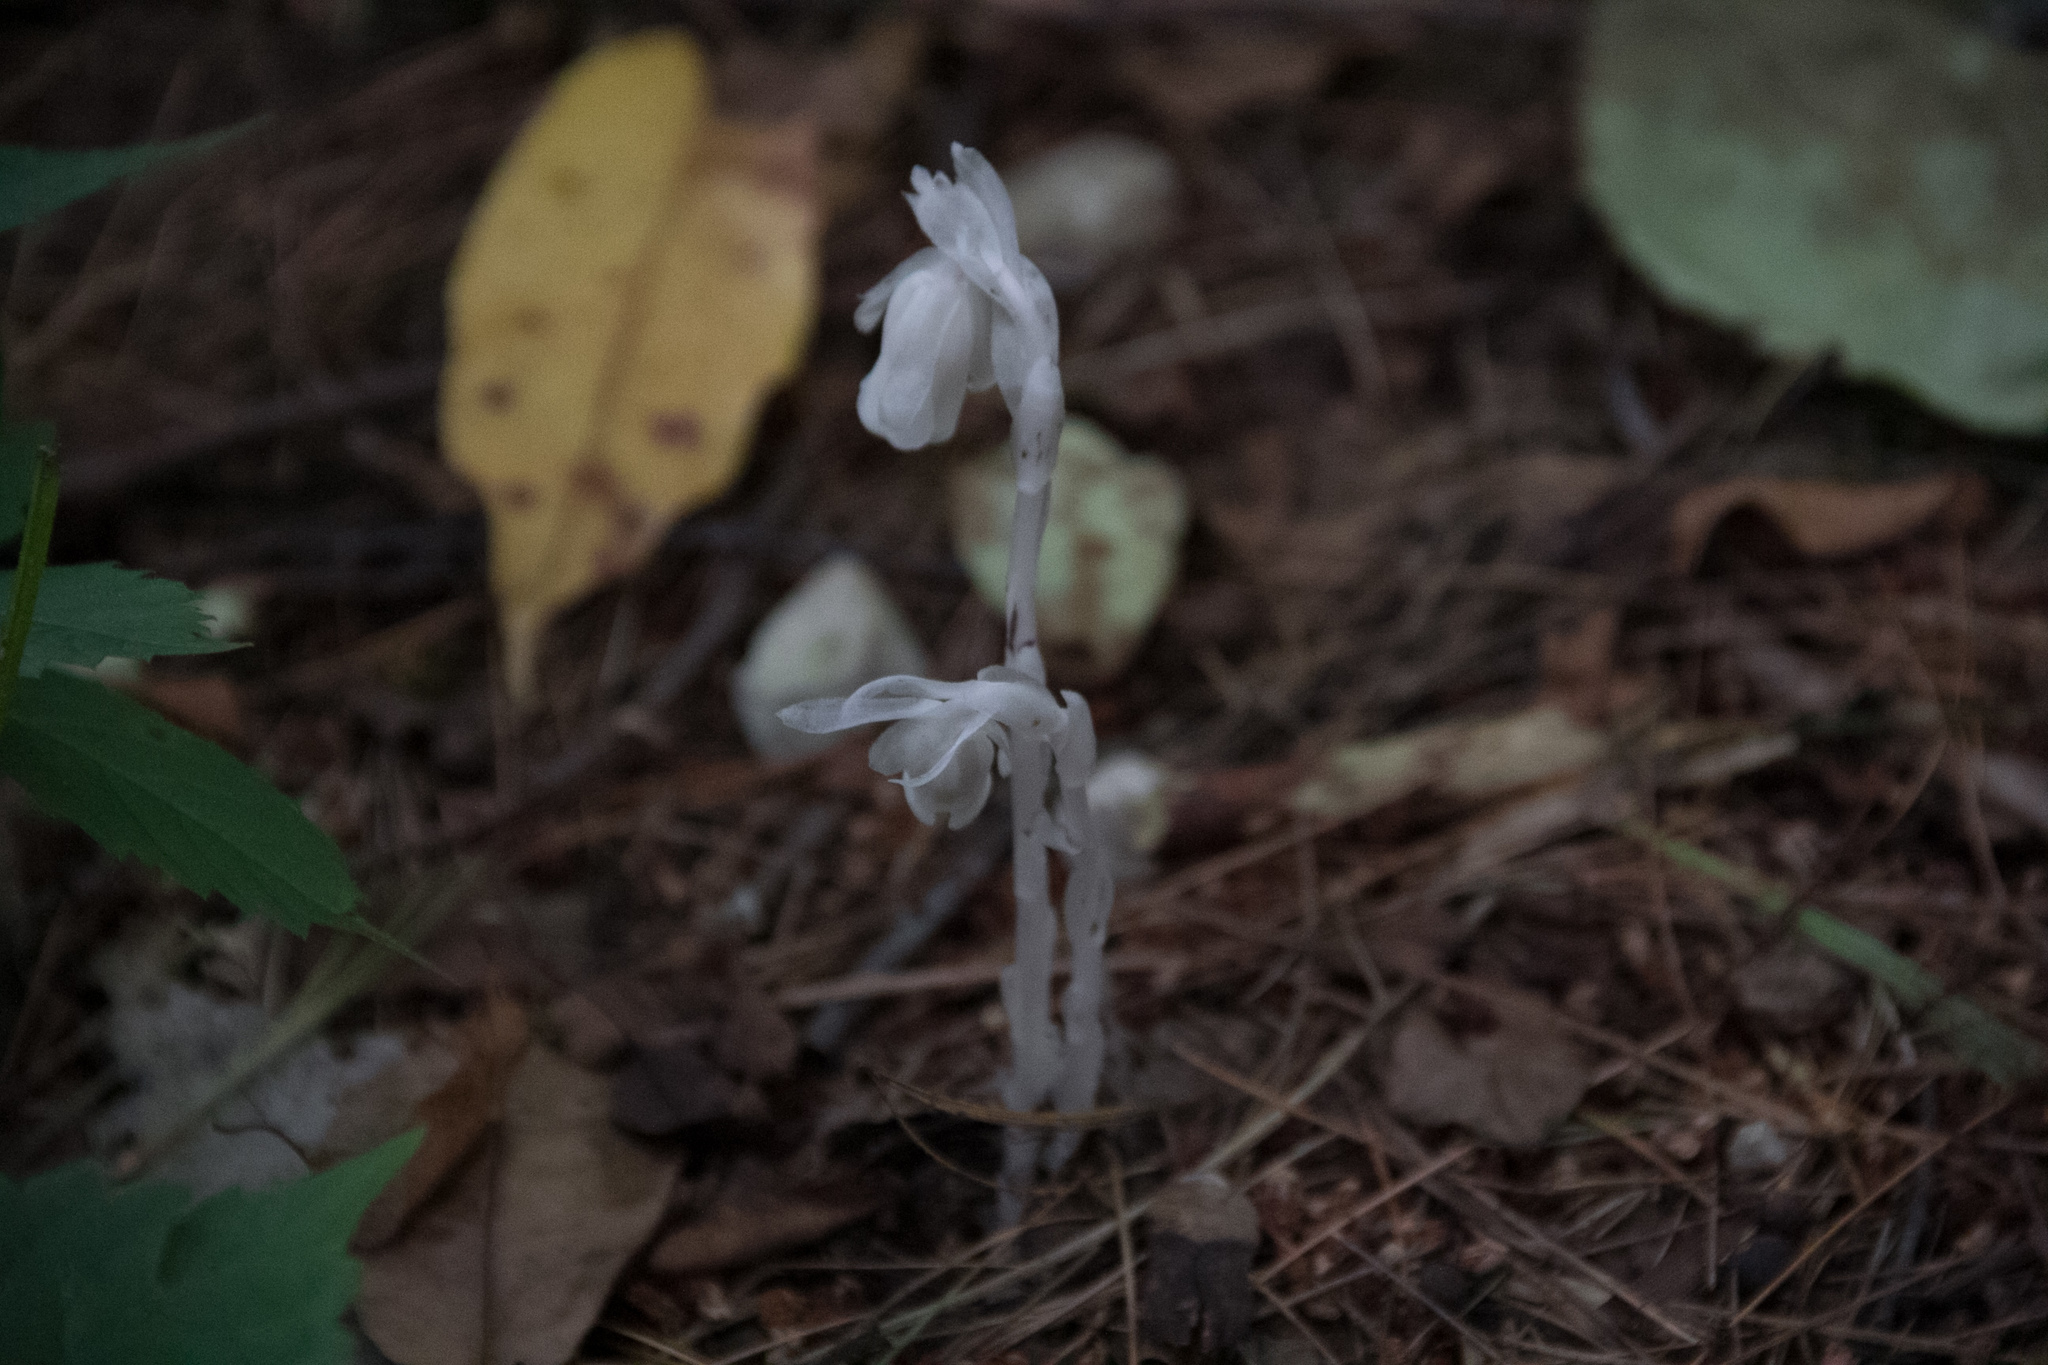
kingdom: Plantae
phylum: Tracheophyta
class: Magnoliopsida
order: Ericales
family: Ericaceae
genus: Monotropa
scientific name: Monotropa uniflora
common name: Convulsion root
